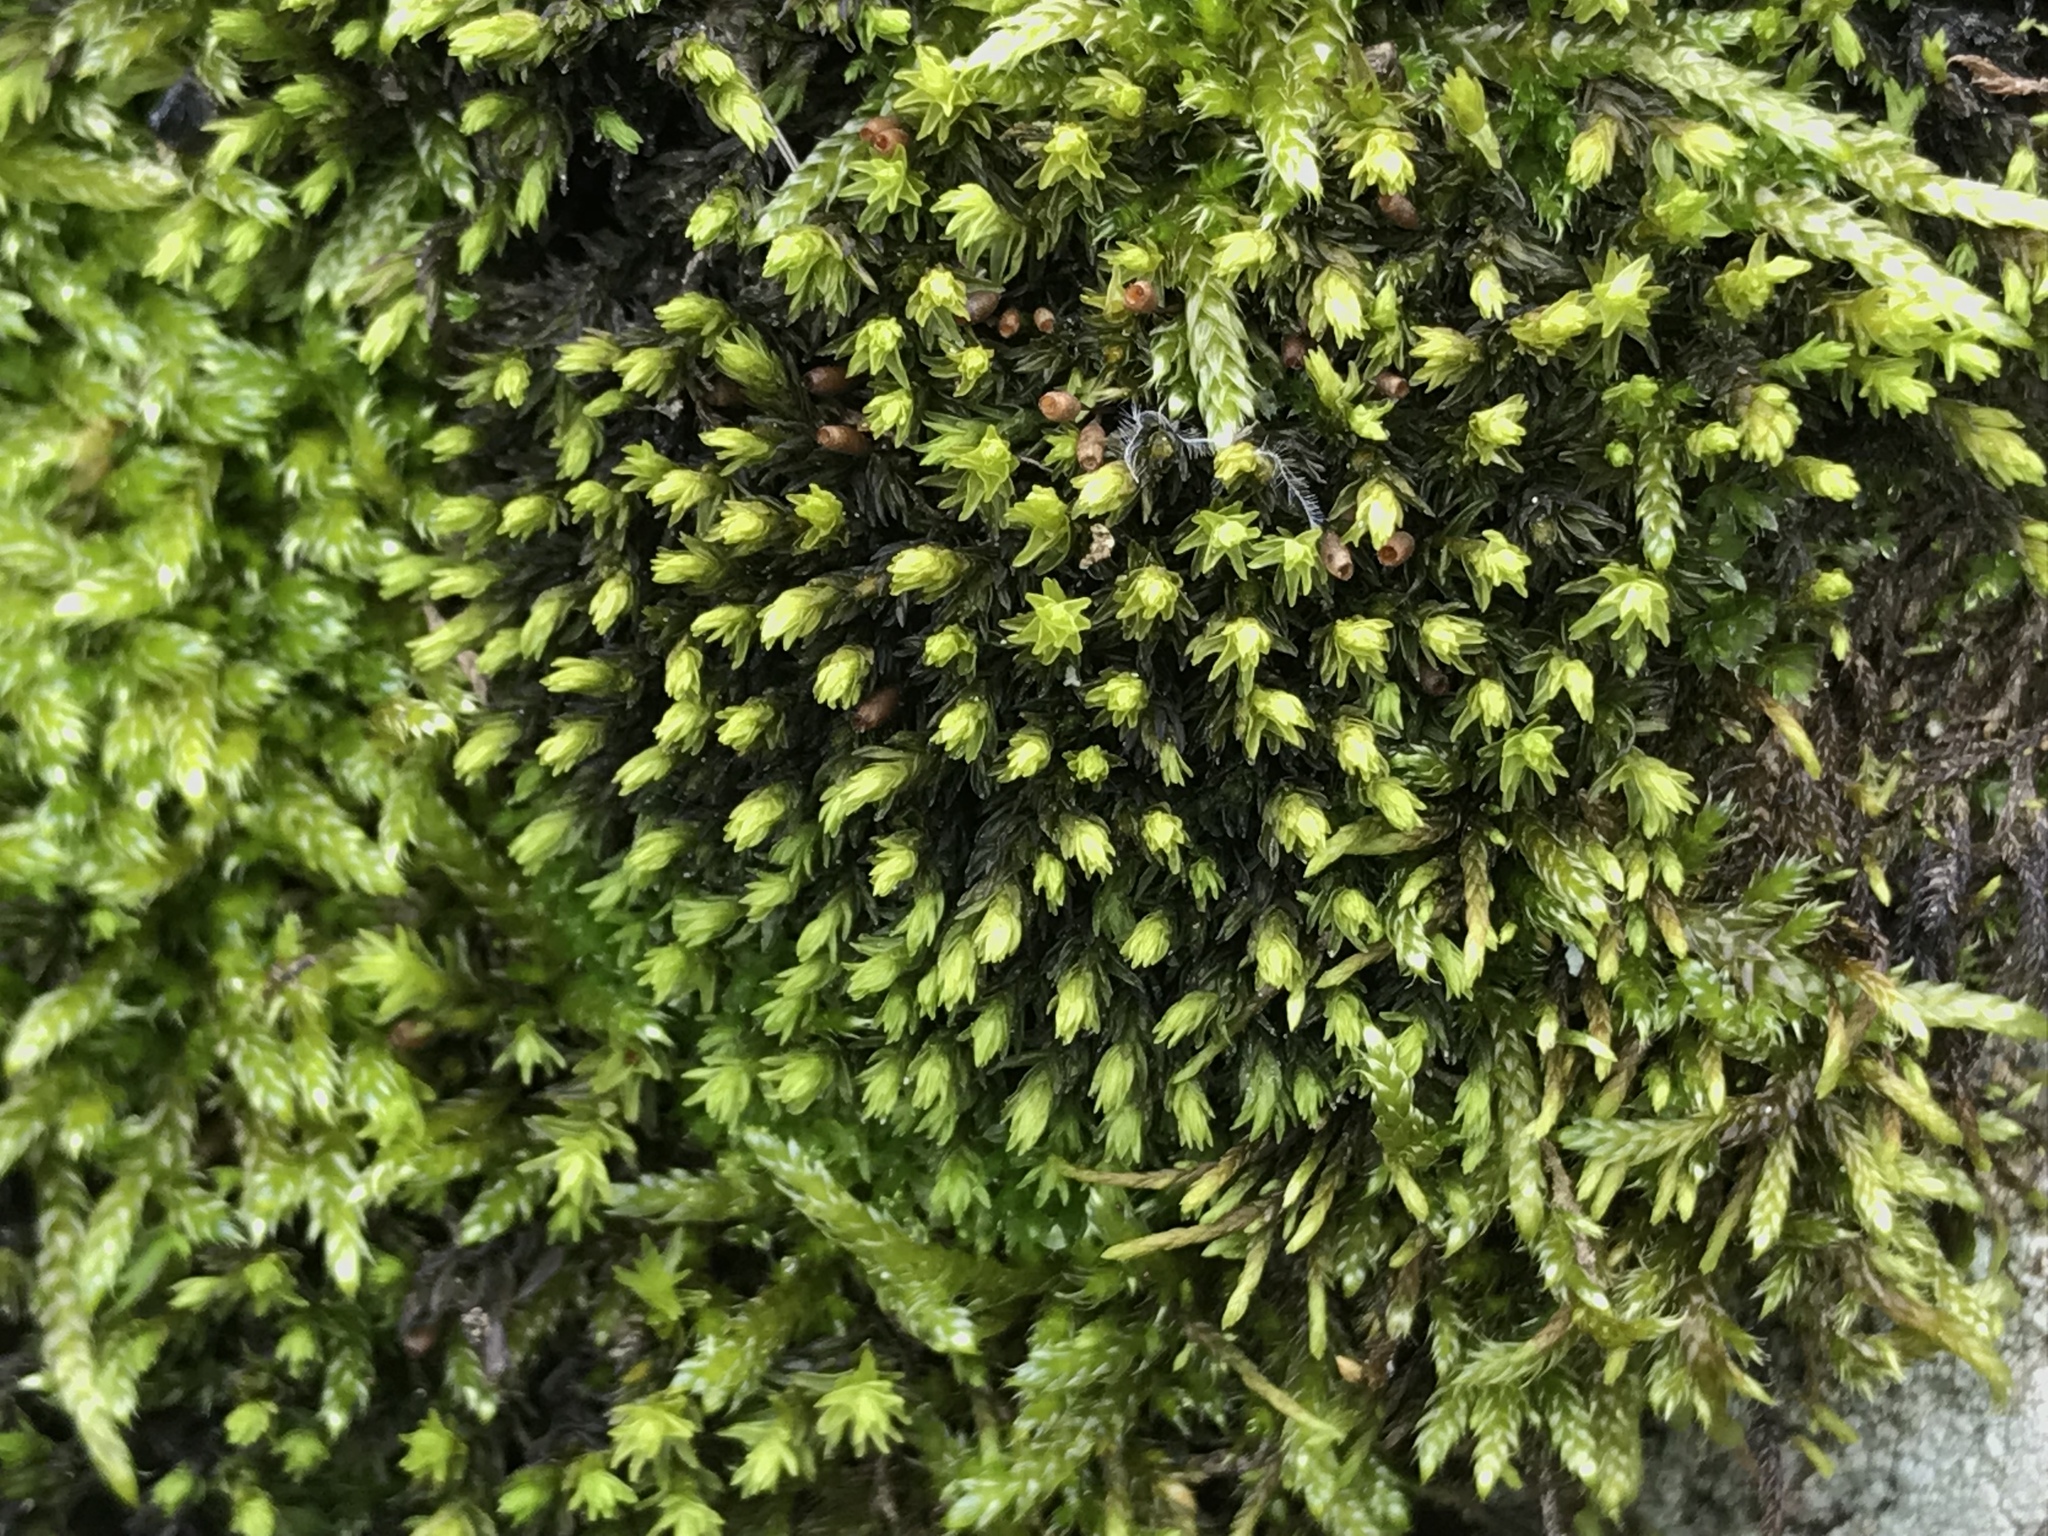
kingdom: Plantae
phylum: Bryophyta
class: Bryopsida
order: Grimmiales
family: Grimmiaceae
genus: Codriophorus
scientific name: Codriophorus acicularis
